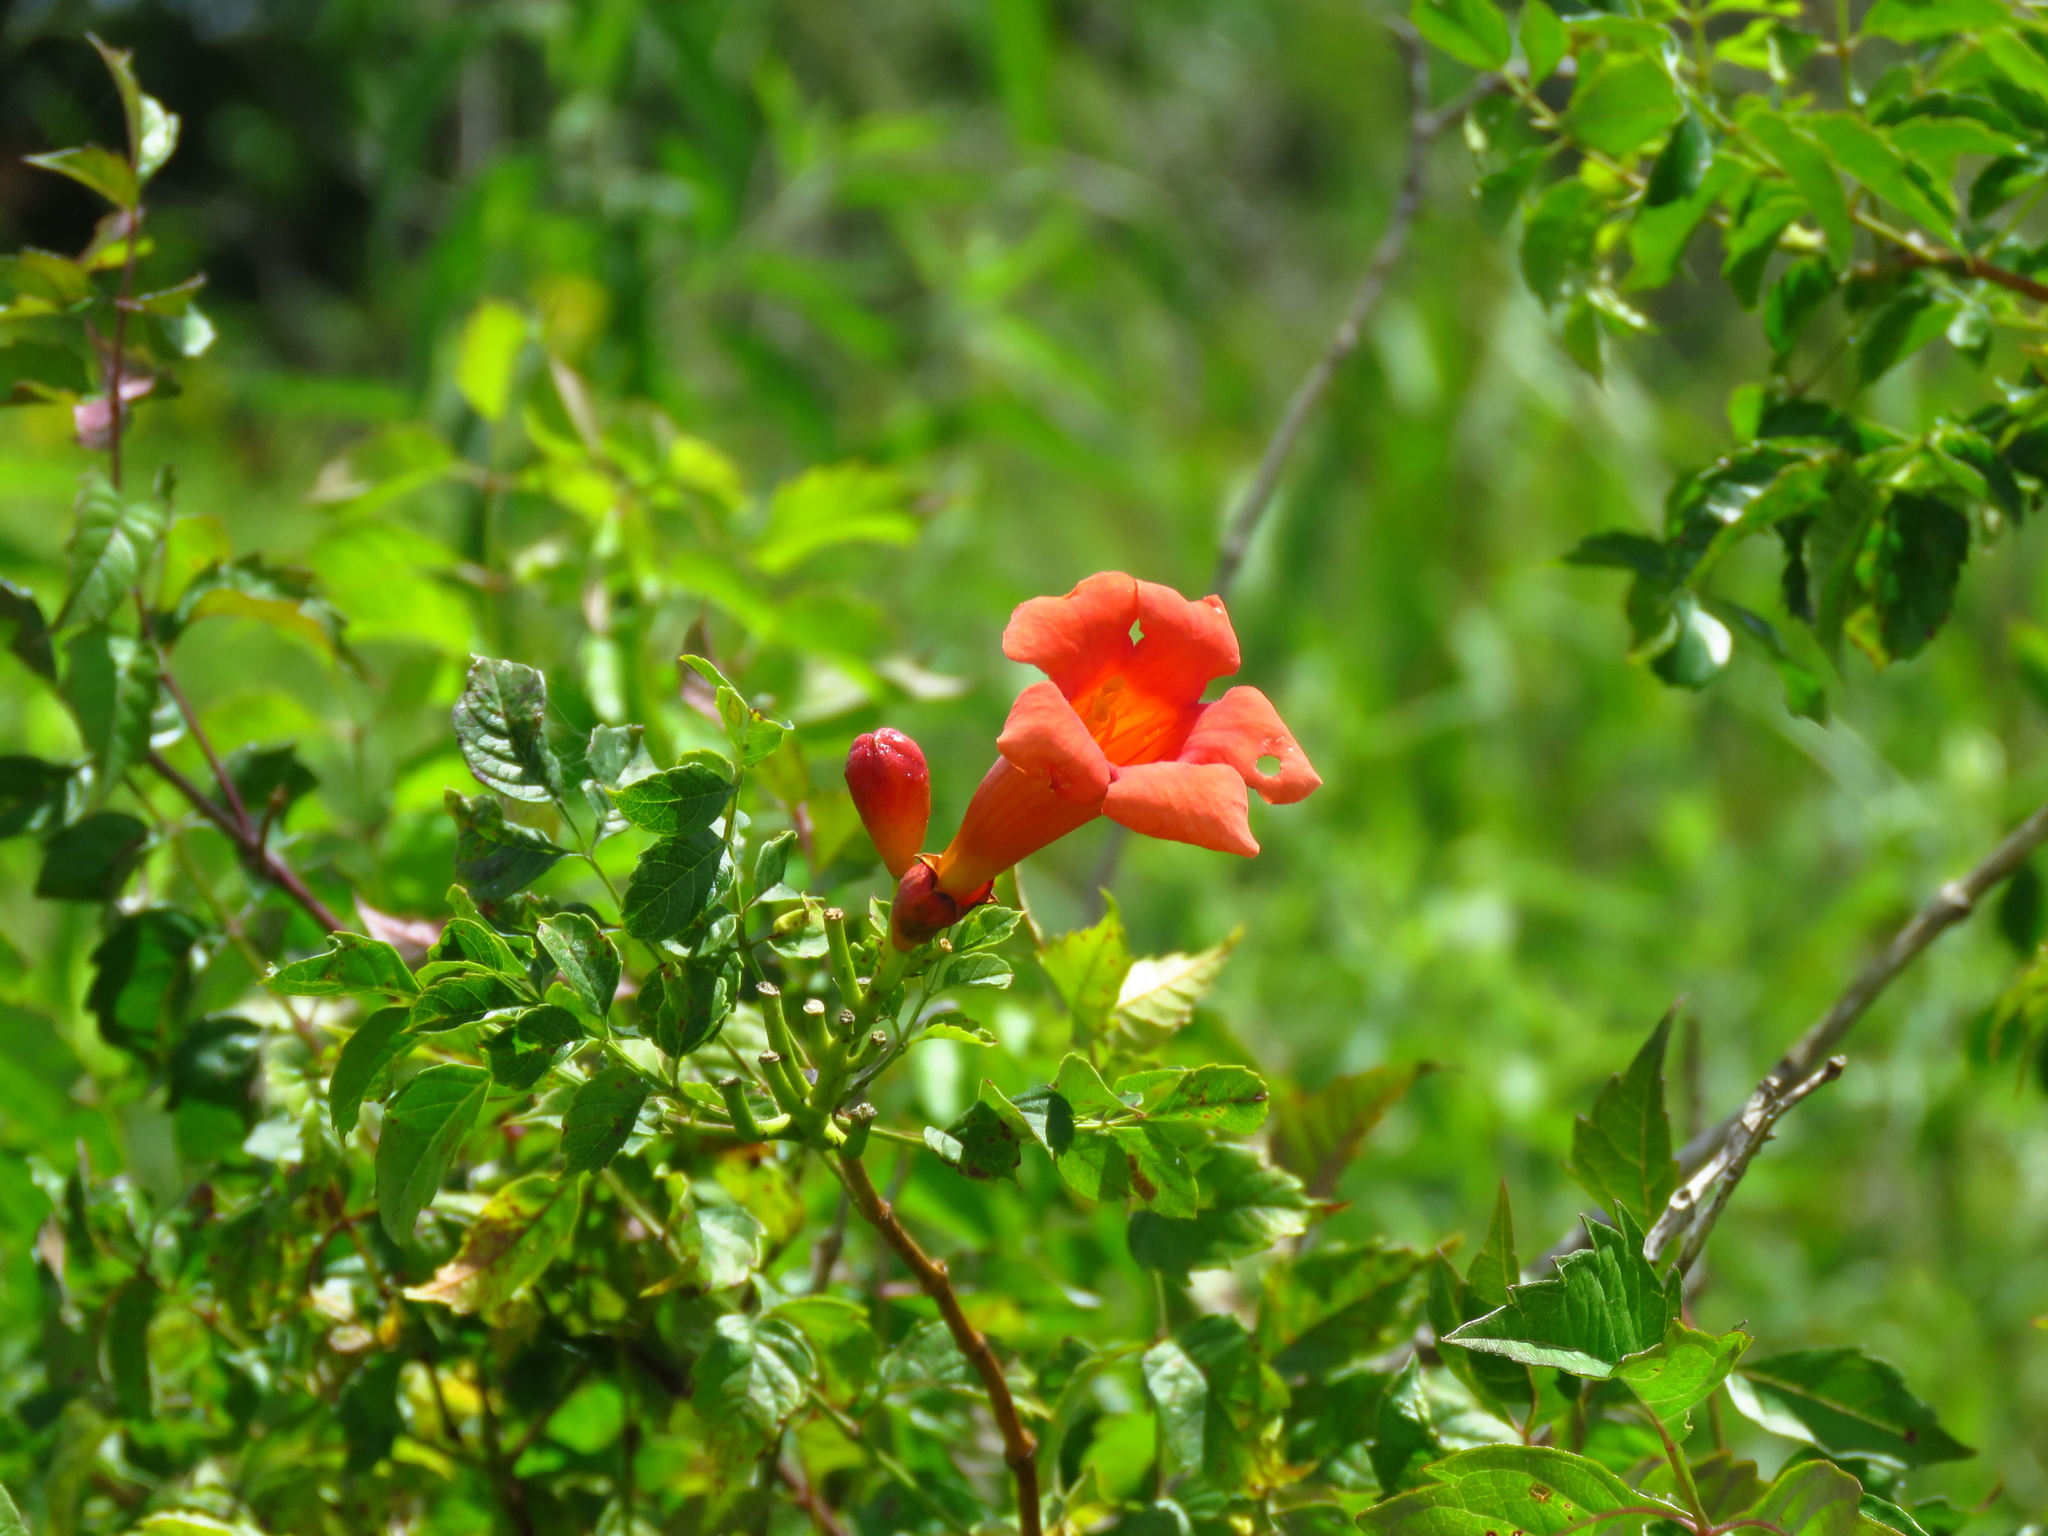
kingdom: Plantae
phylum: Tracheophyta
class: Magnoliopsida
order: Lamiales
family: Bignoniaceae
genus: Campsis
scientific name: Campsis radicans
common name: Trumpet-creeper
